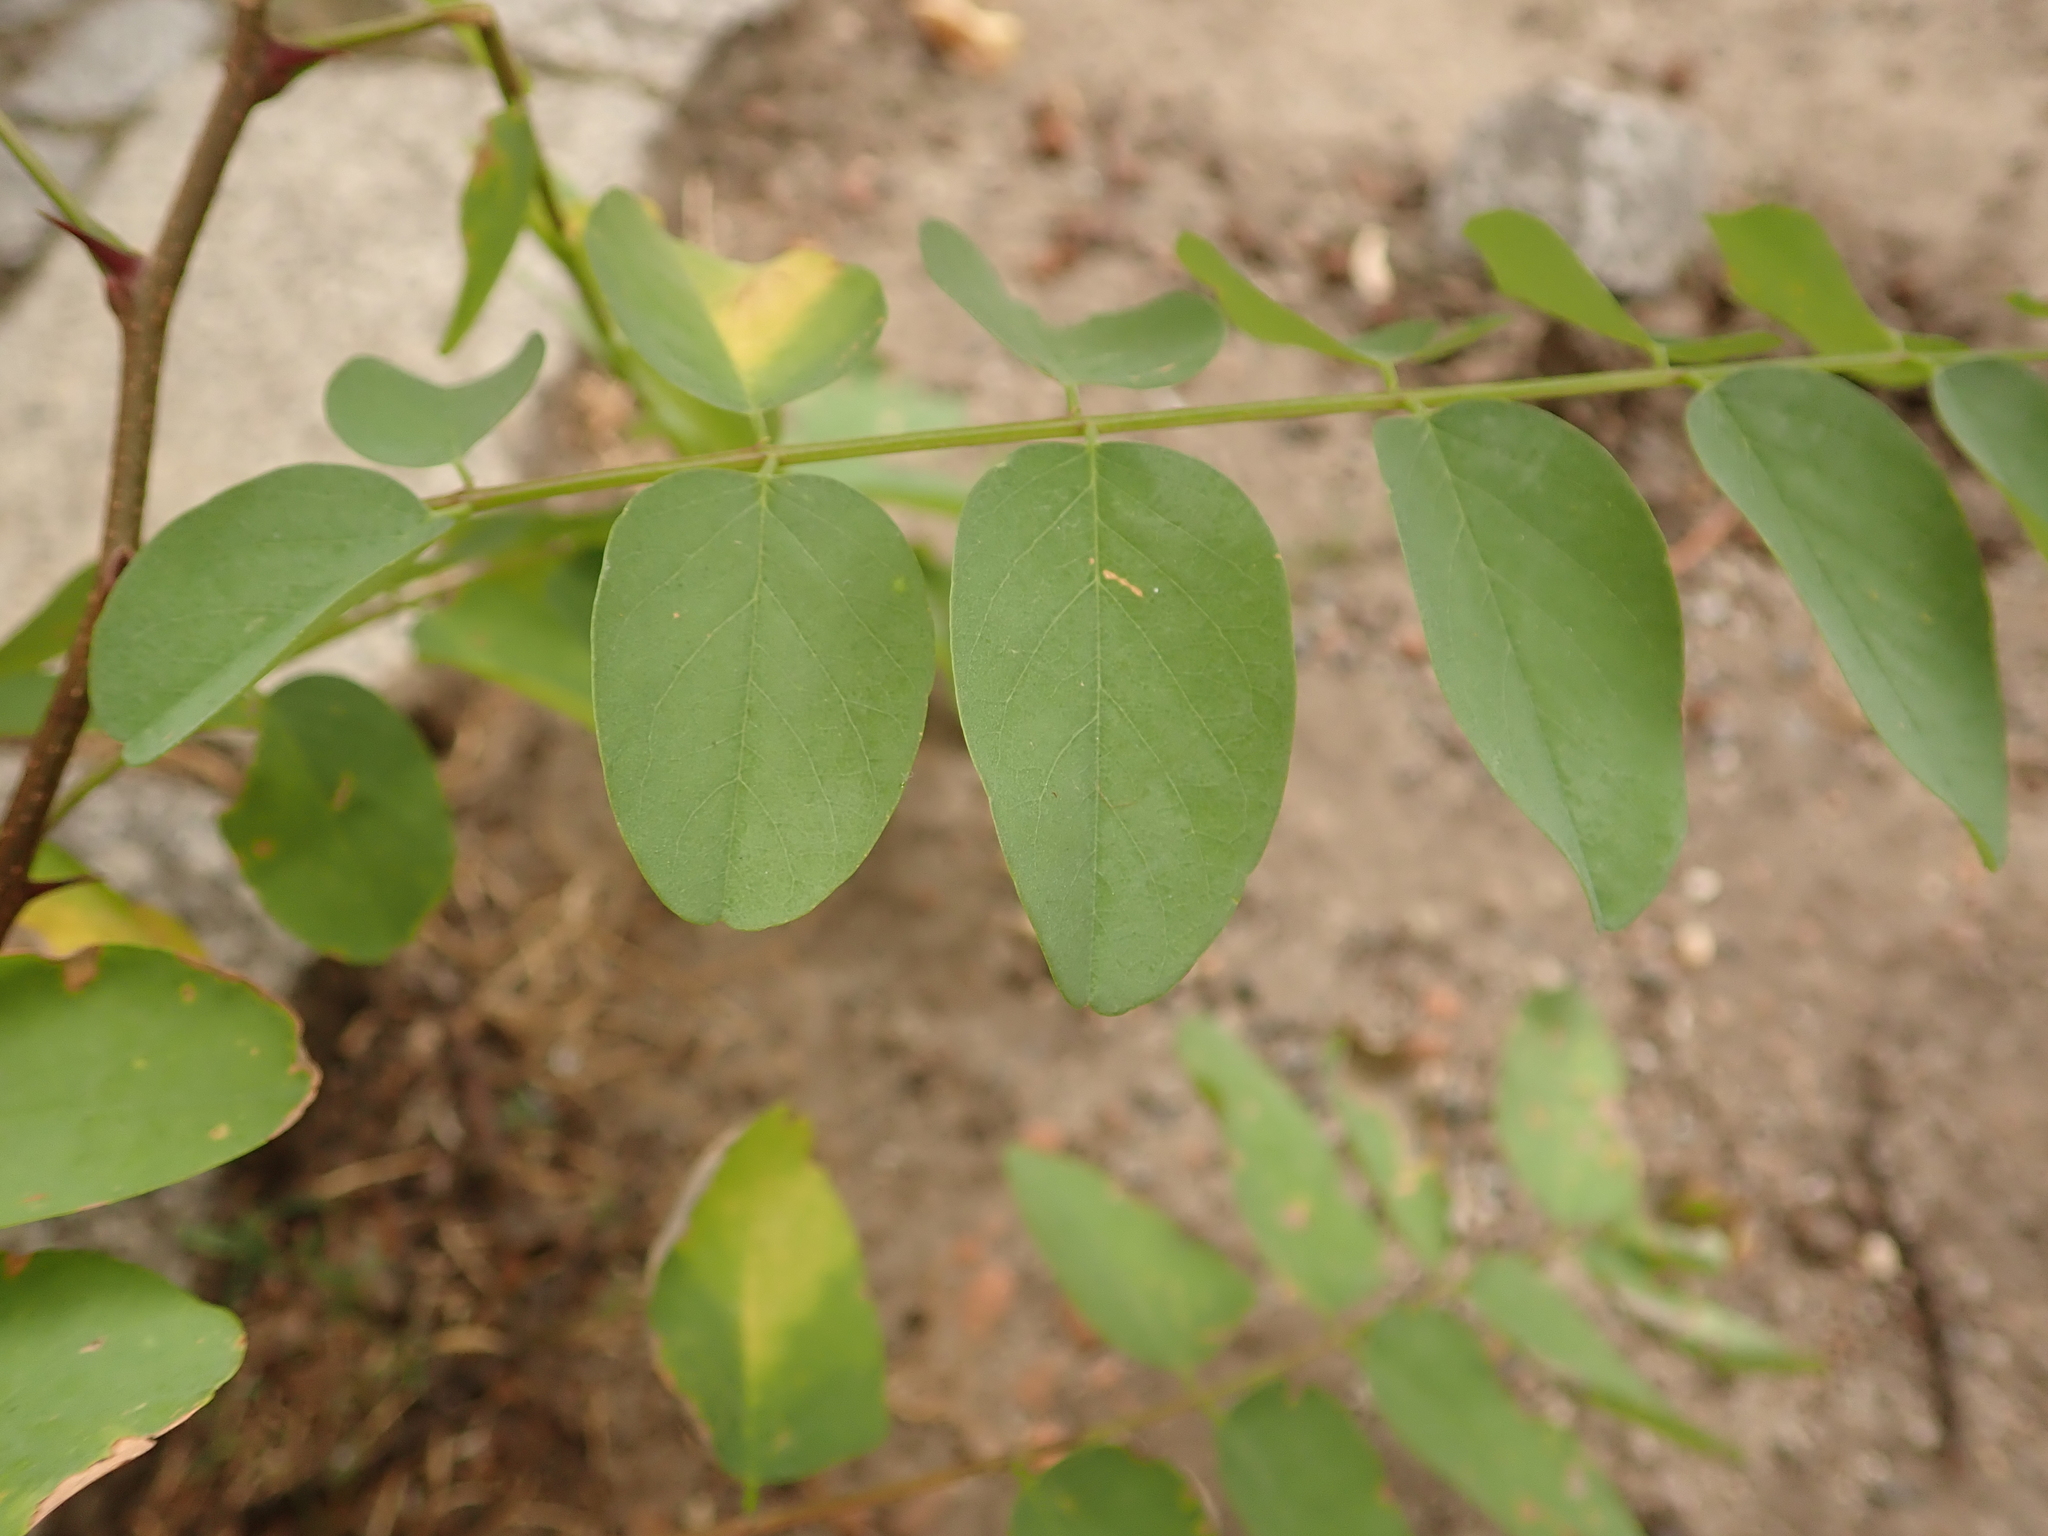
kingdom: Plantae
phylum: Tracheophyta
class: Magnoliopsida
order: Fabales
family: Fabaceae
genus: Robinia
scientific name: Robinia pseudoacacia
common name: Black locust
